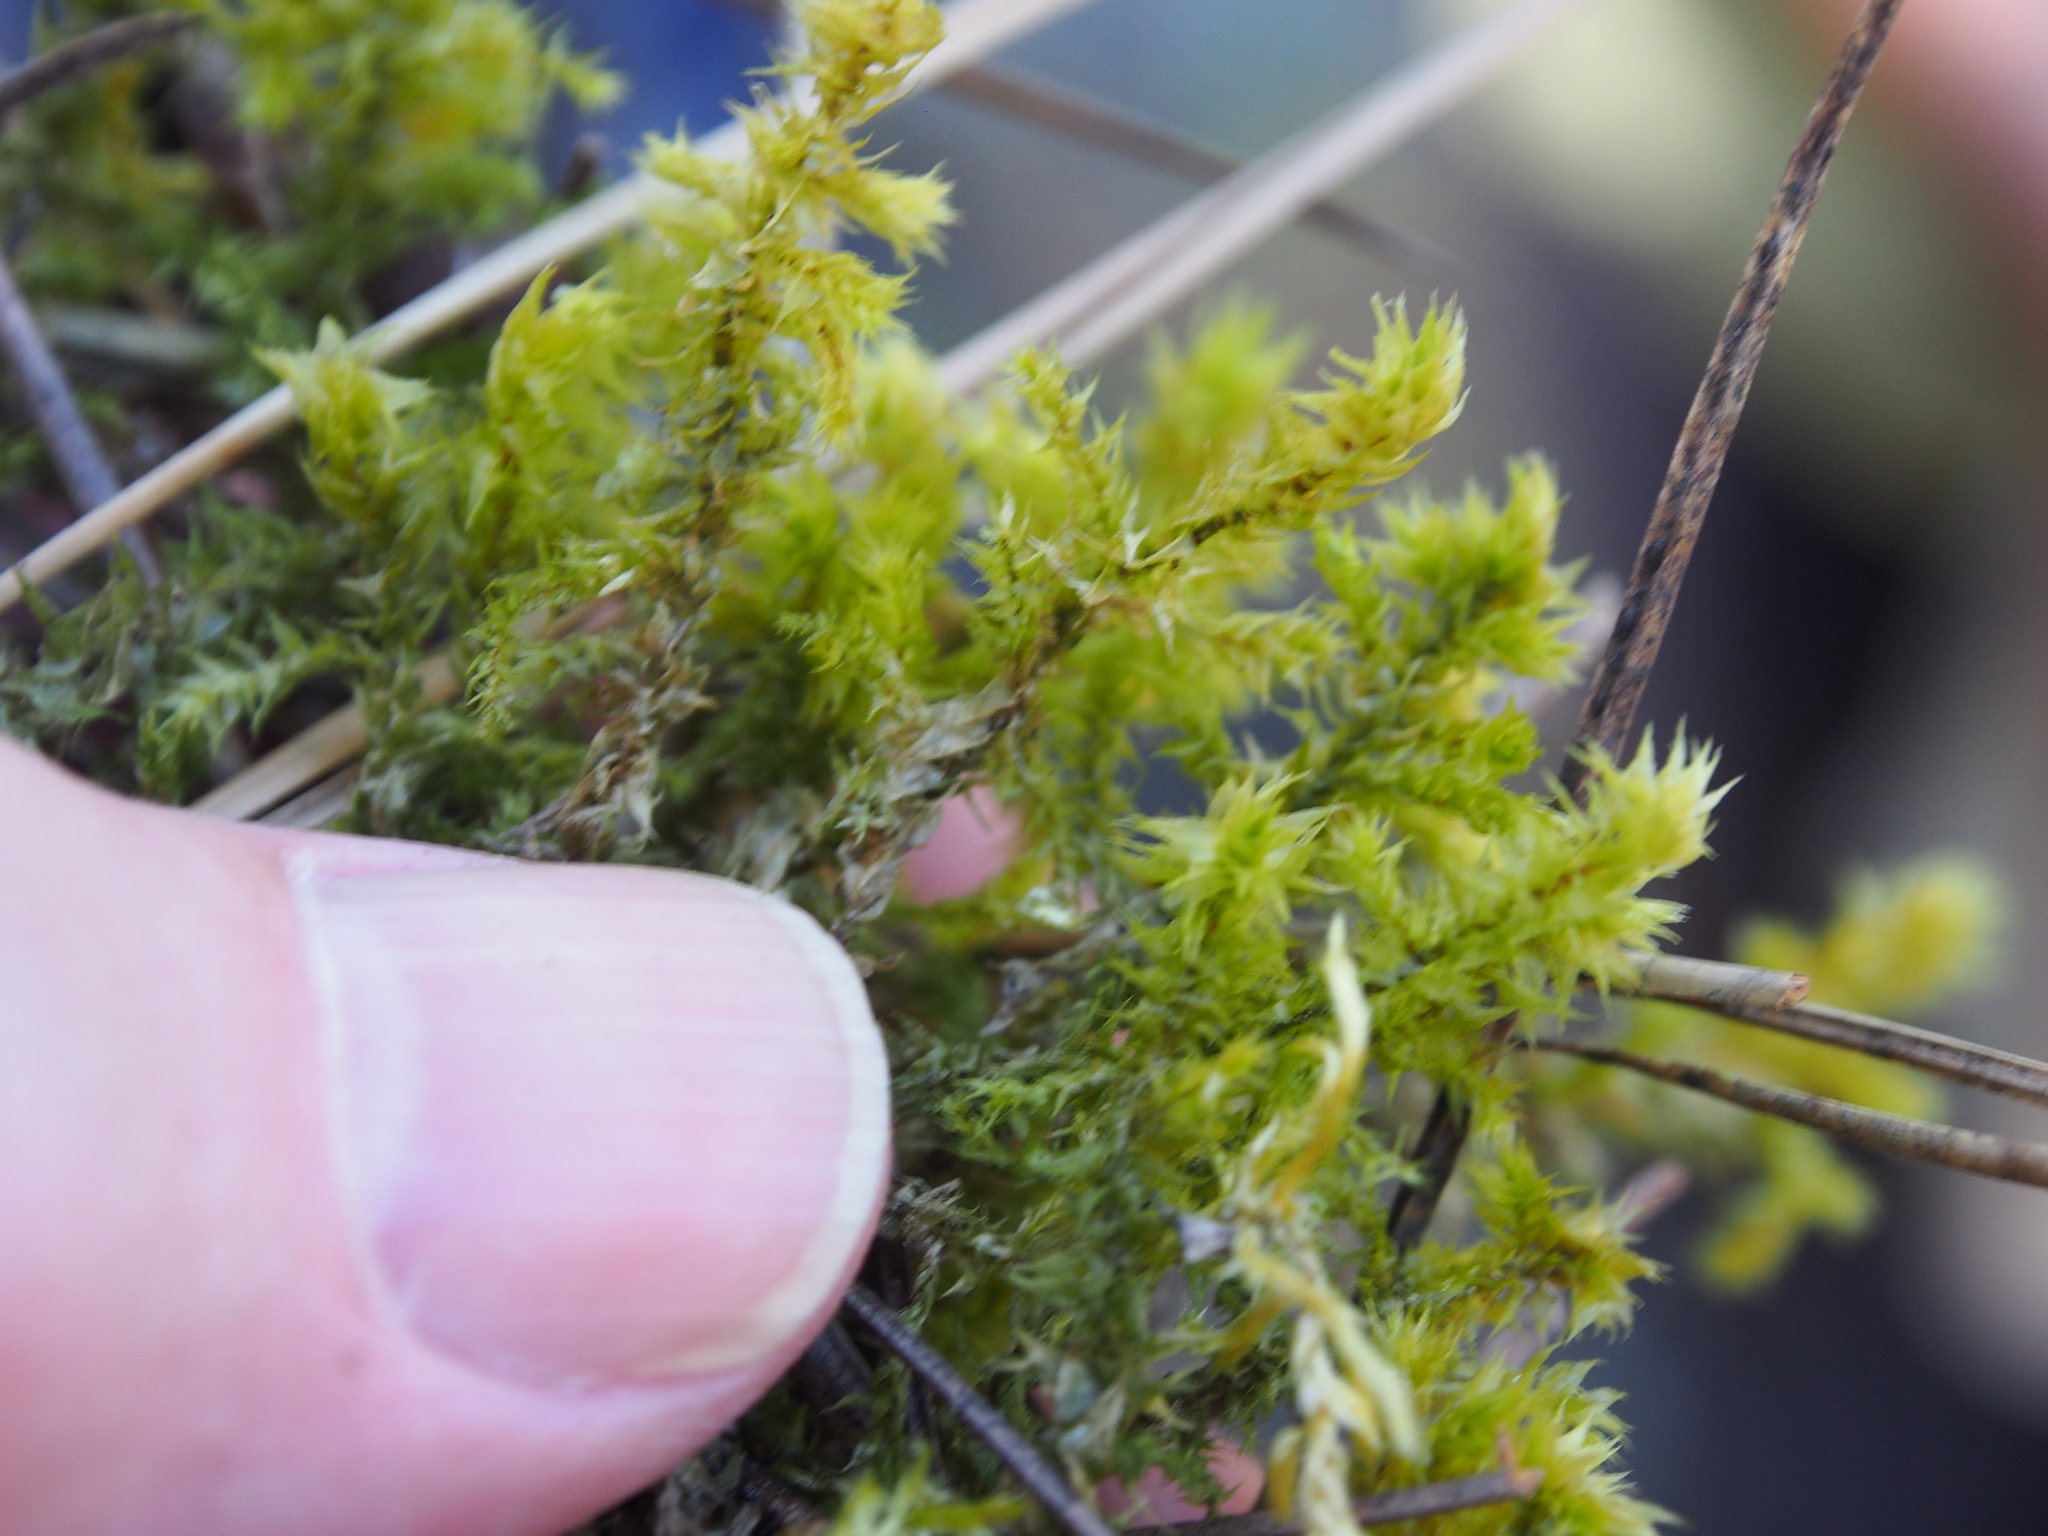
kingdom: Plantae
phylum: Bryophyta
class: Bryopsida
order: Hypnales
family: Hylocomiaceae
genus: Hylocomiadelphus
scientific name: Hylocomiadelphus triquetrus
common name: Rough goose neck moss
